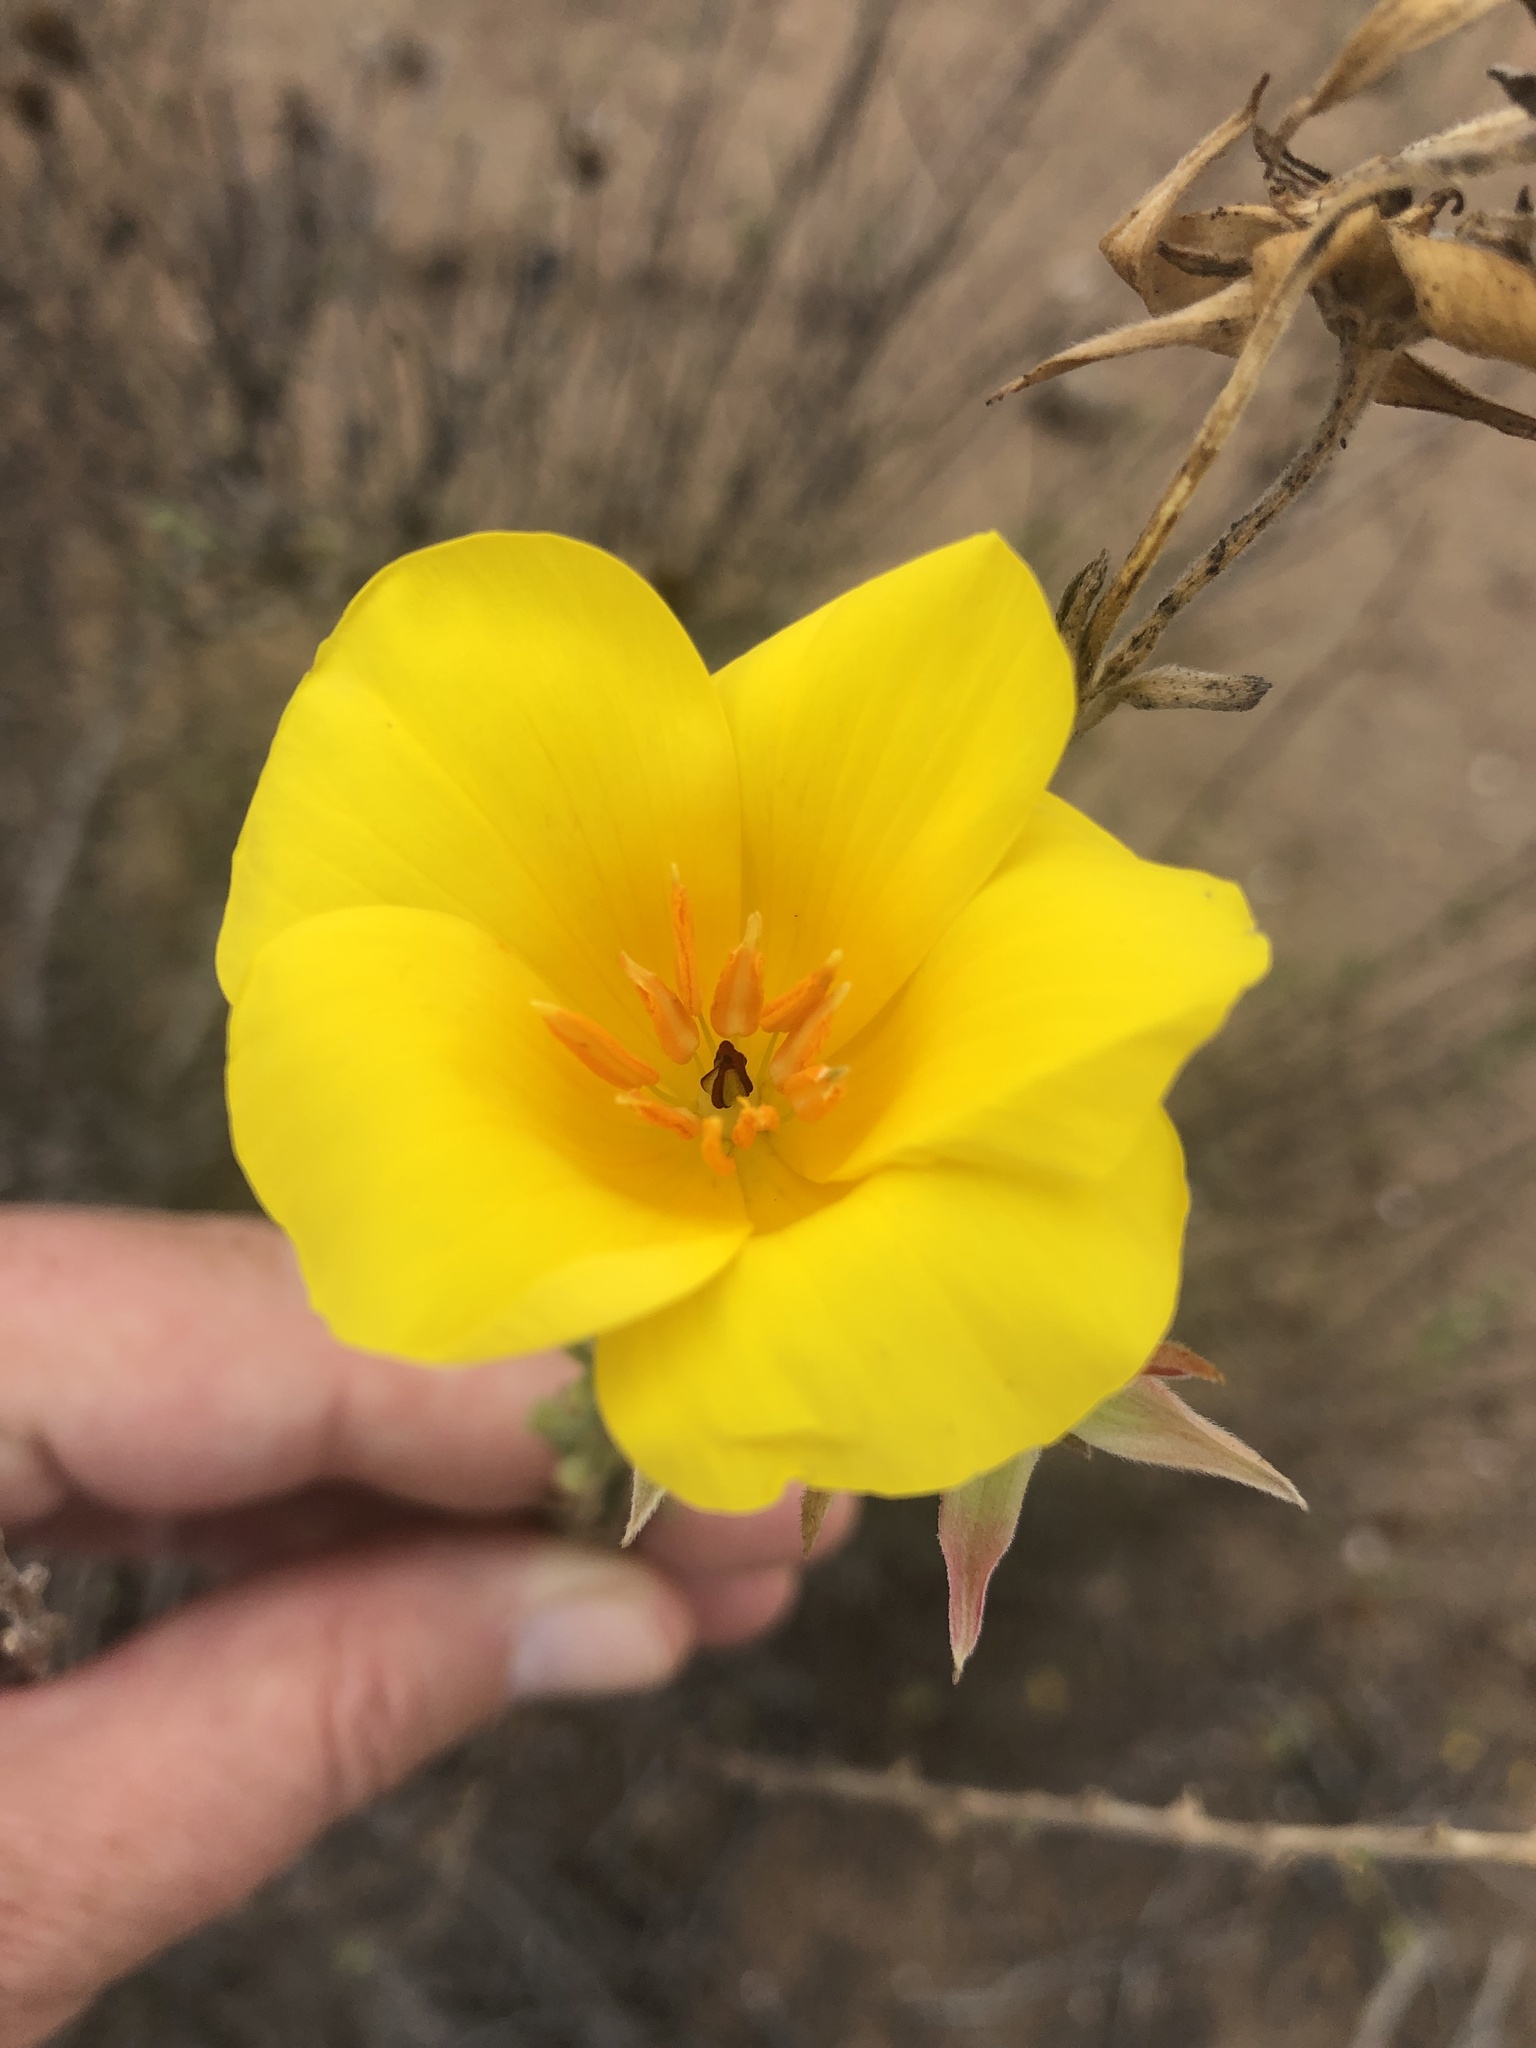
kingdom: Plantae
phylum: Tracheophyta
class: Magnoliopsida
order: Geraniales
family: Vivianiaceae
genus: Balbisia
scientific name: Balbisia peduncularis
